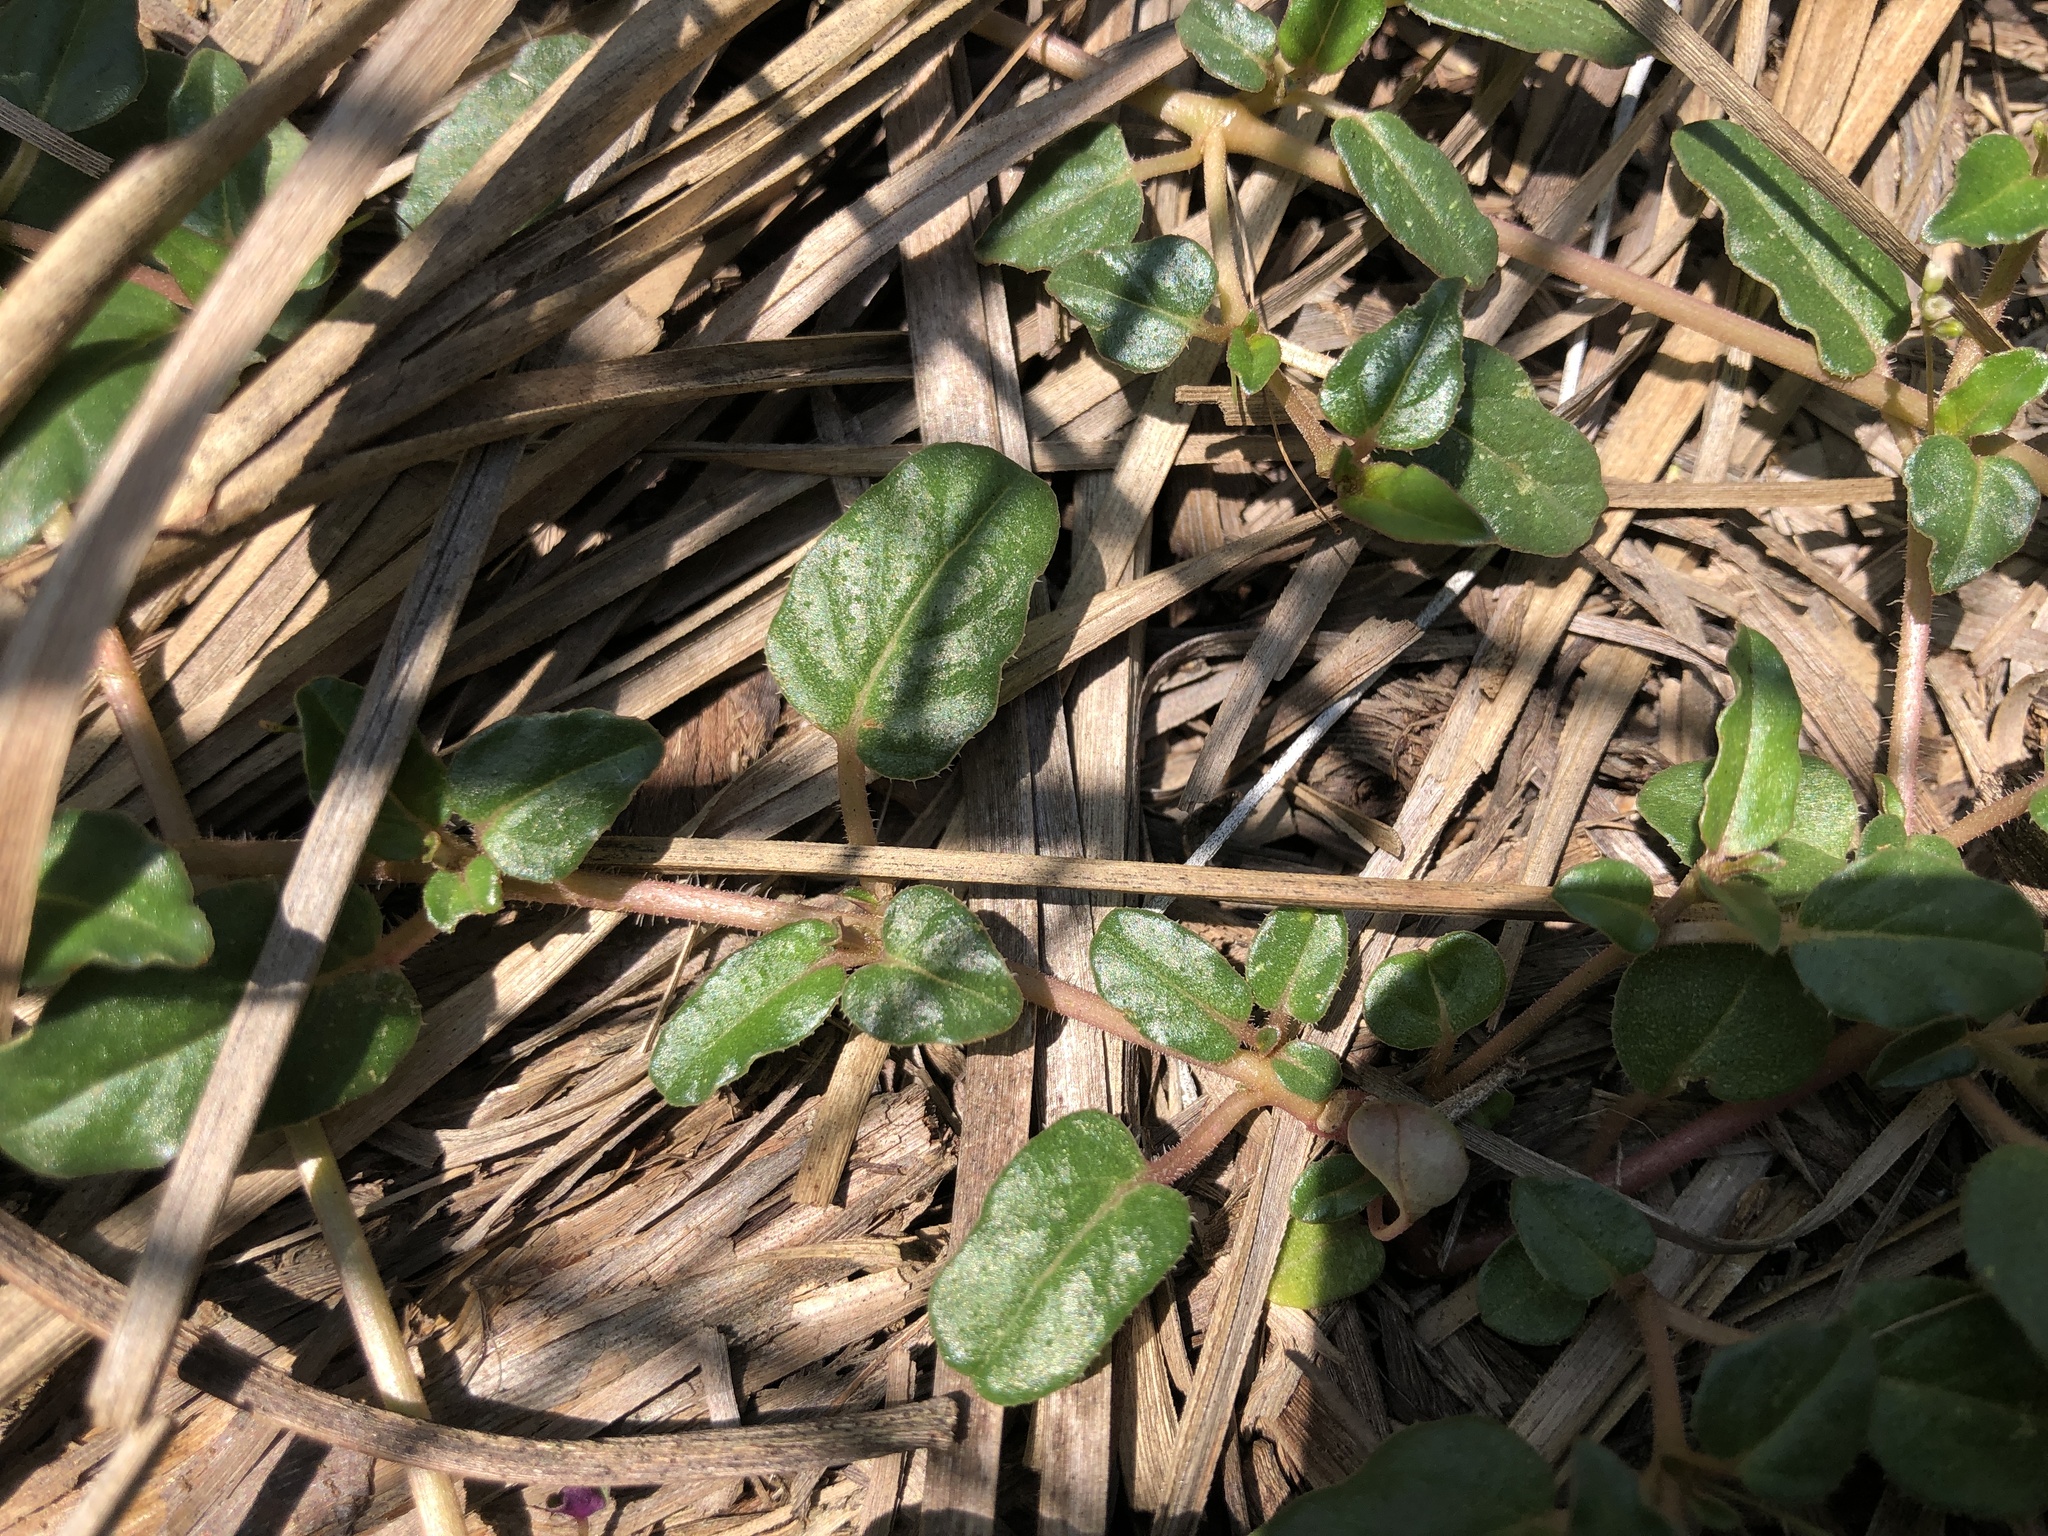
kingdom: Plantae
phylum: Tracheophyta
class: Magnoliopsida
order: Caryophyllales
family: Nyctaginaceae
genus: Boerhavia
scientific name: Boerhavia glabrata
